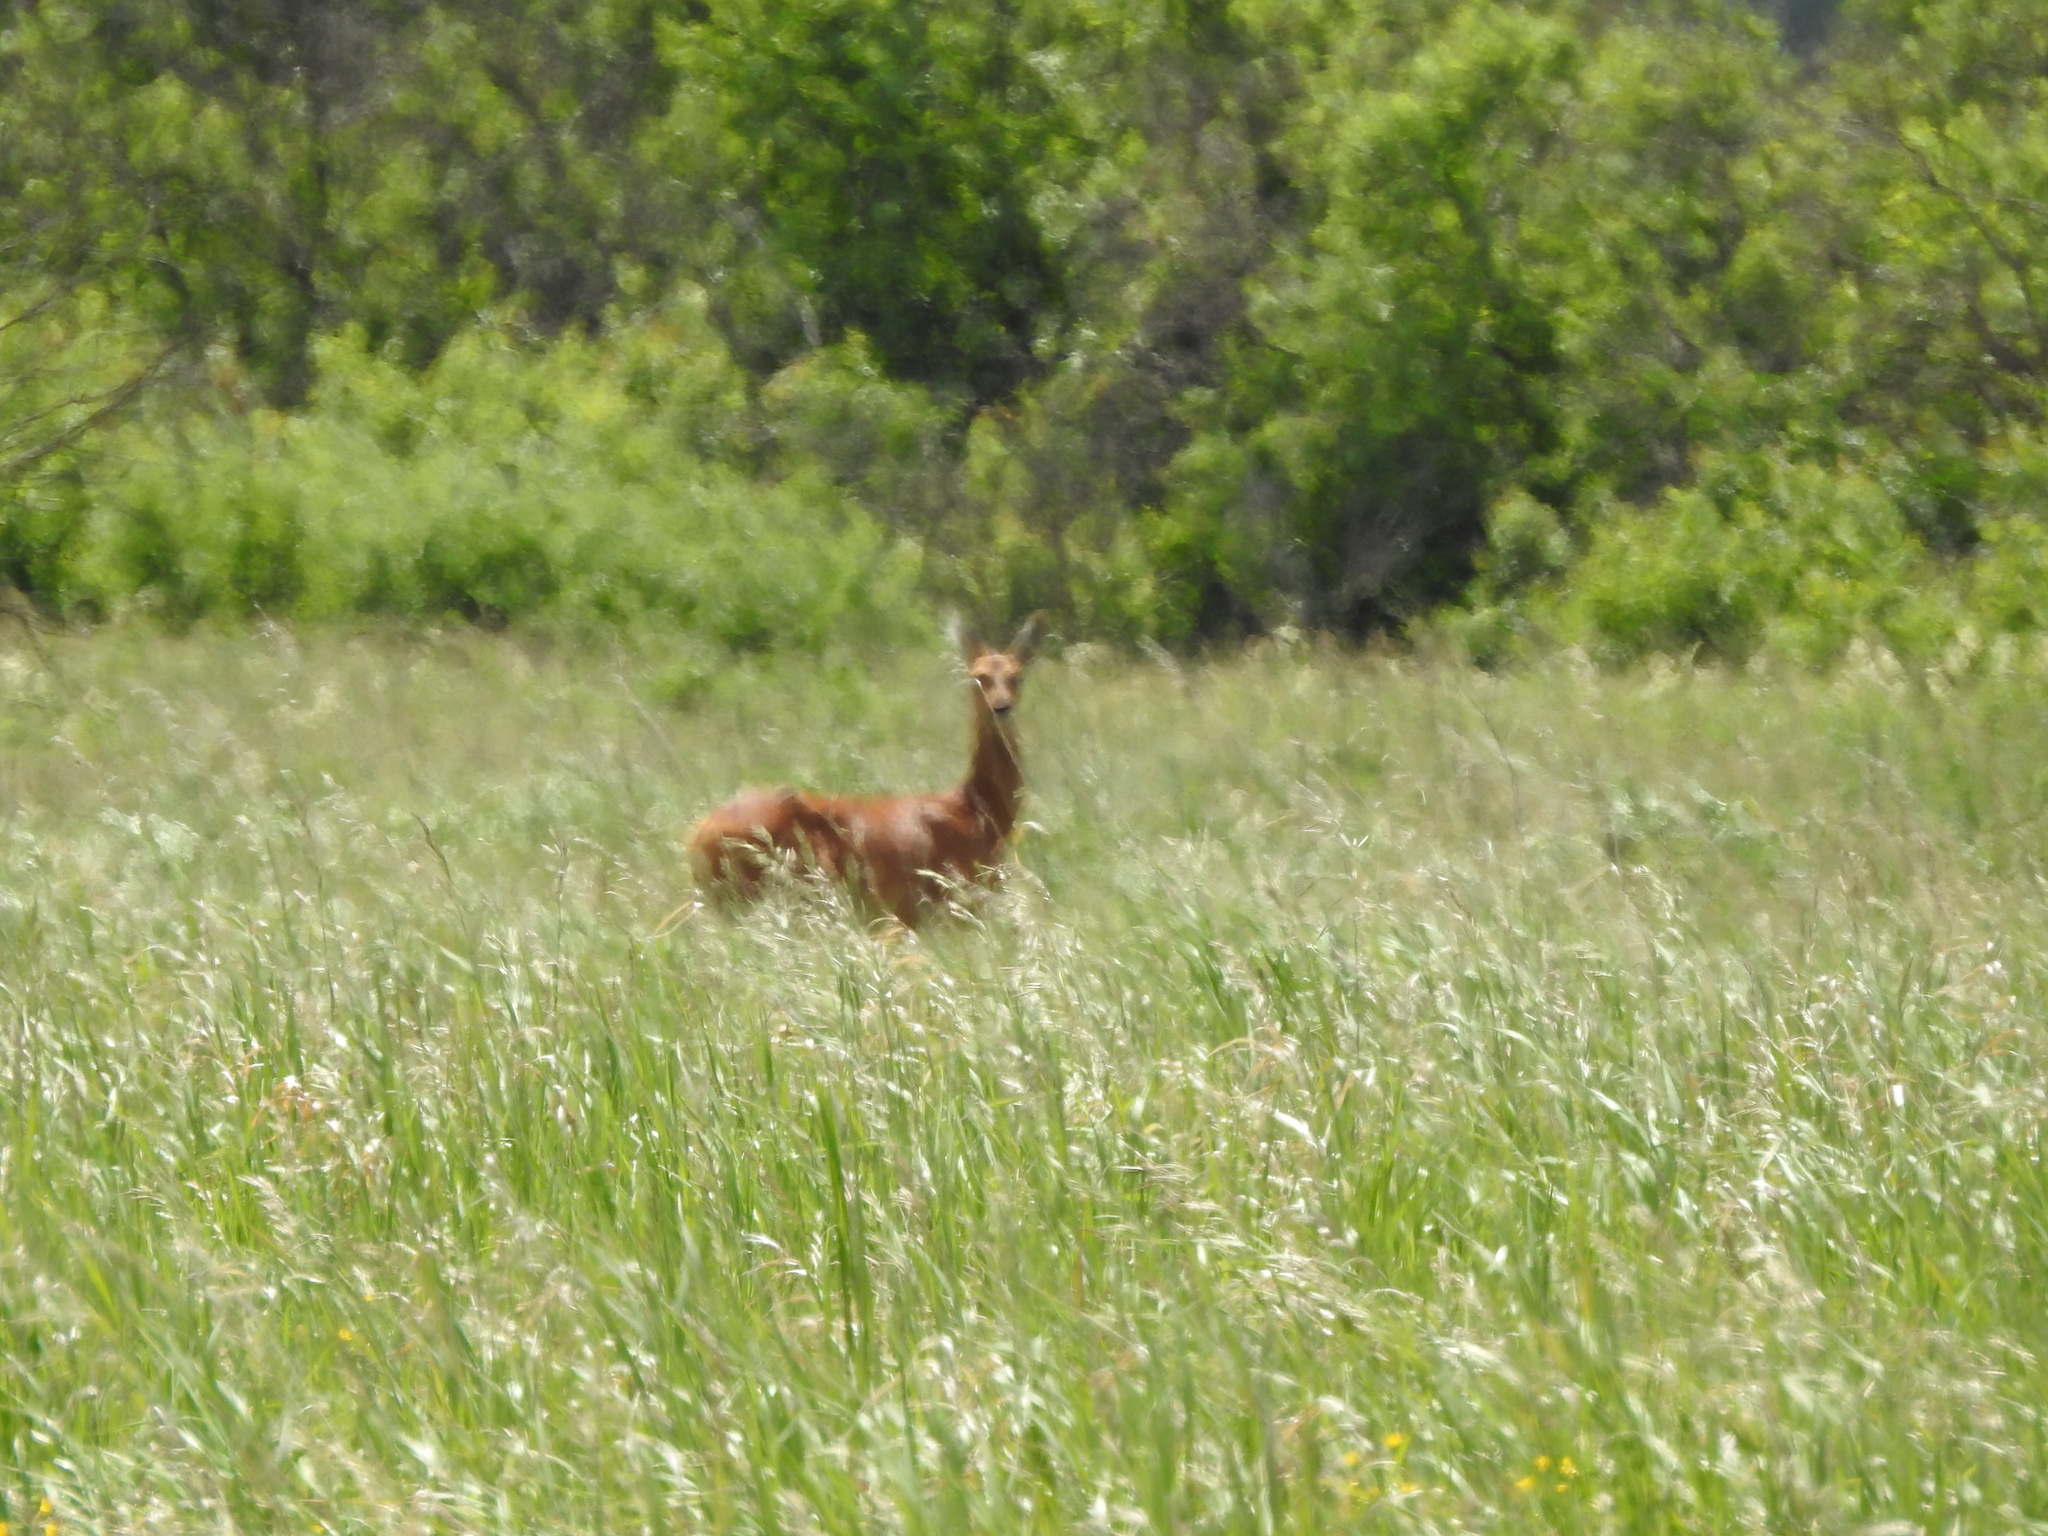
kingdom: Animalia
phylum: Chordata
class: Mammalia
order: Artiodactyla
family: Cervidae
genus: Capreolus
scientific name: Capreolus pygargus
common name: Siberian roe
